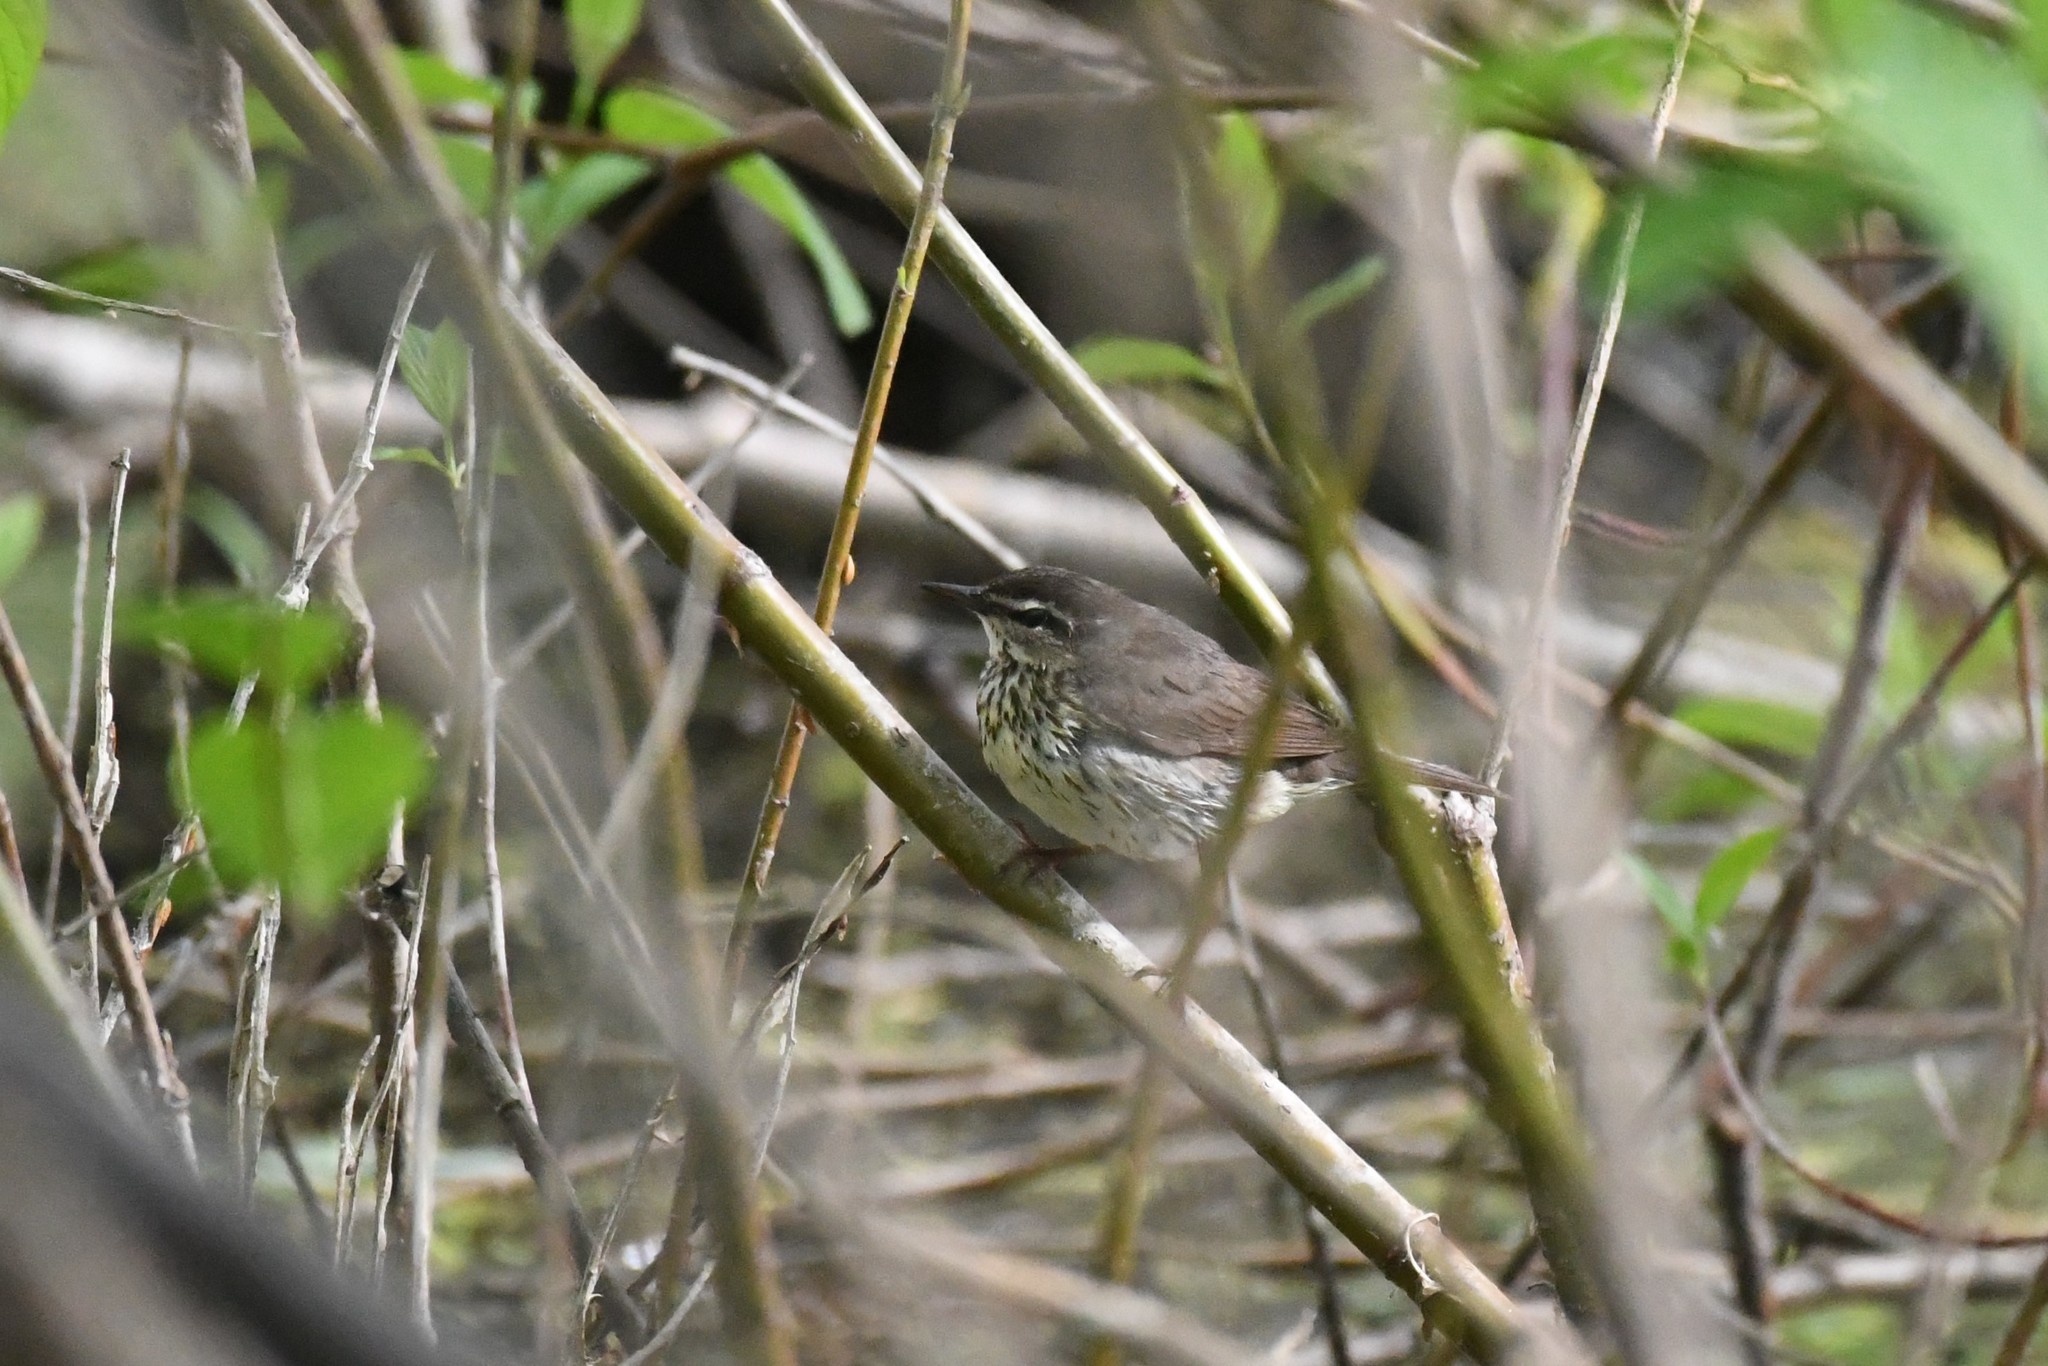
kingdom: Animalia
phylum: Chordata
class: Aves
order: Passeriformes
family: Parulidae
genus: Parkesia
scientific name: Parkesia noveboracensis
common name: Northern waterthrush
